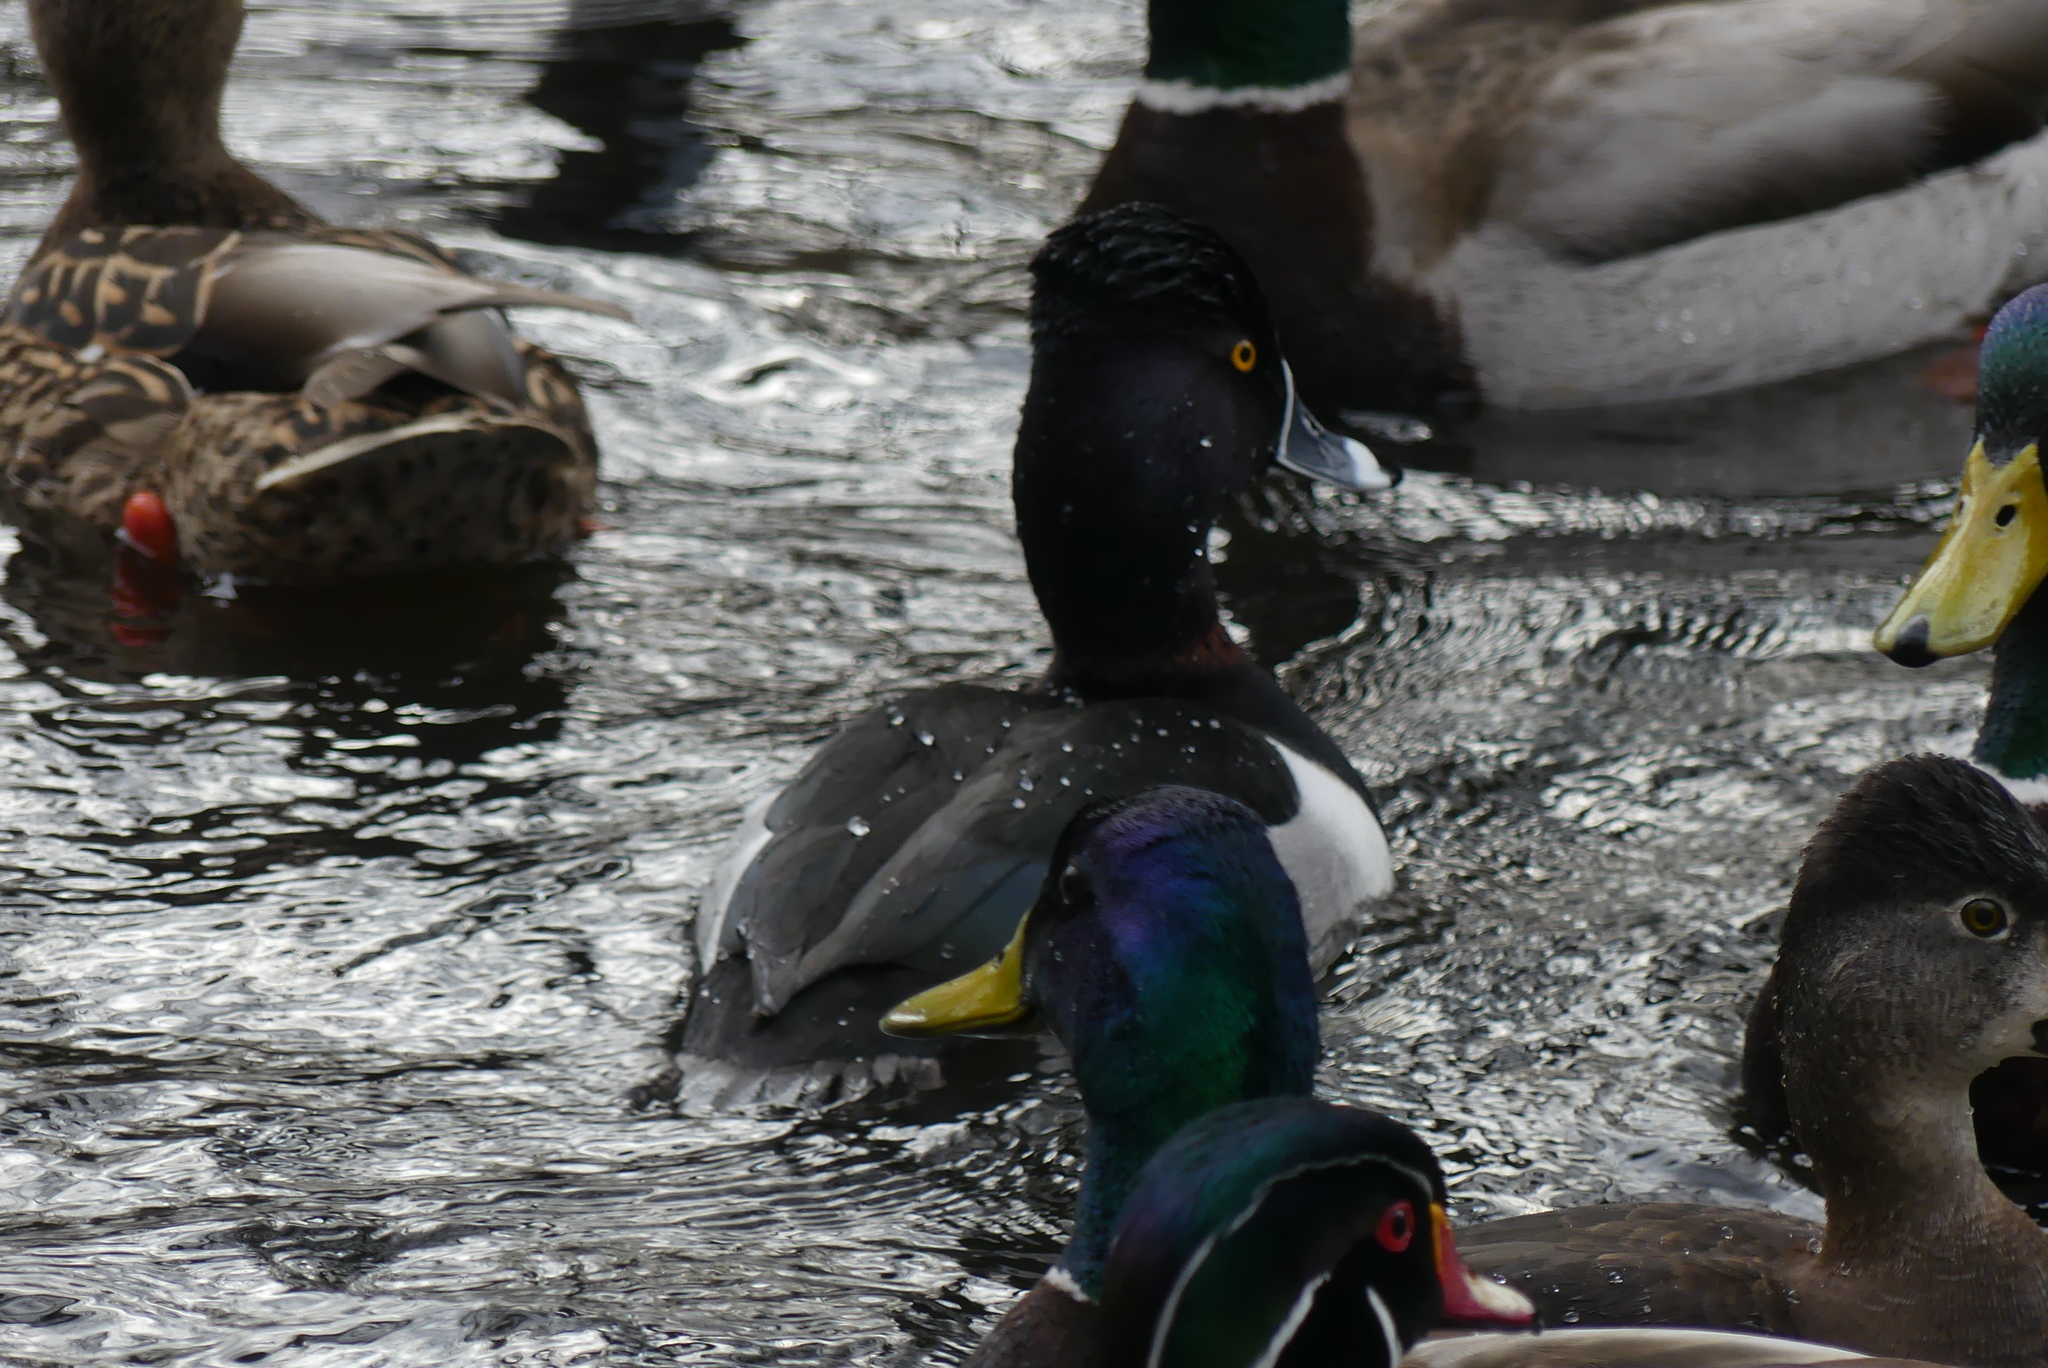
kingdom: Animalia
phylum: Chordata
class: Aves
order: Anseriformes
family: Anatidae
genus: Aythya
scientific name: Aythya collaris
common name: Ring-necked duck
